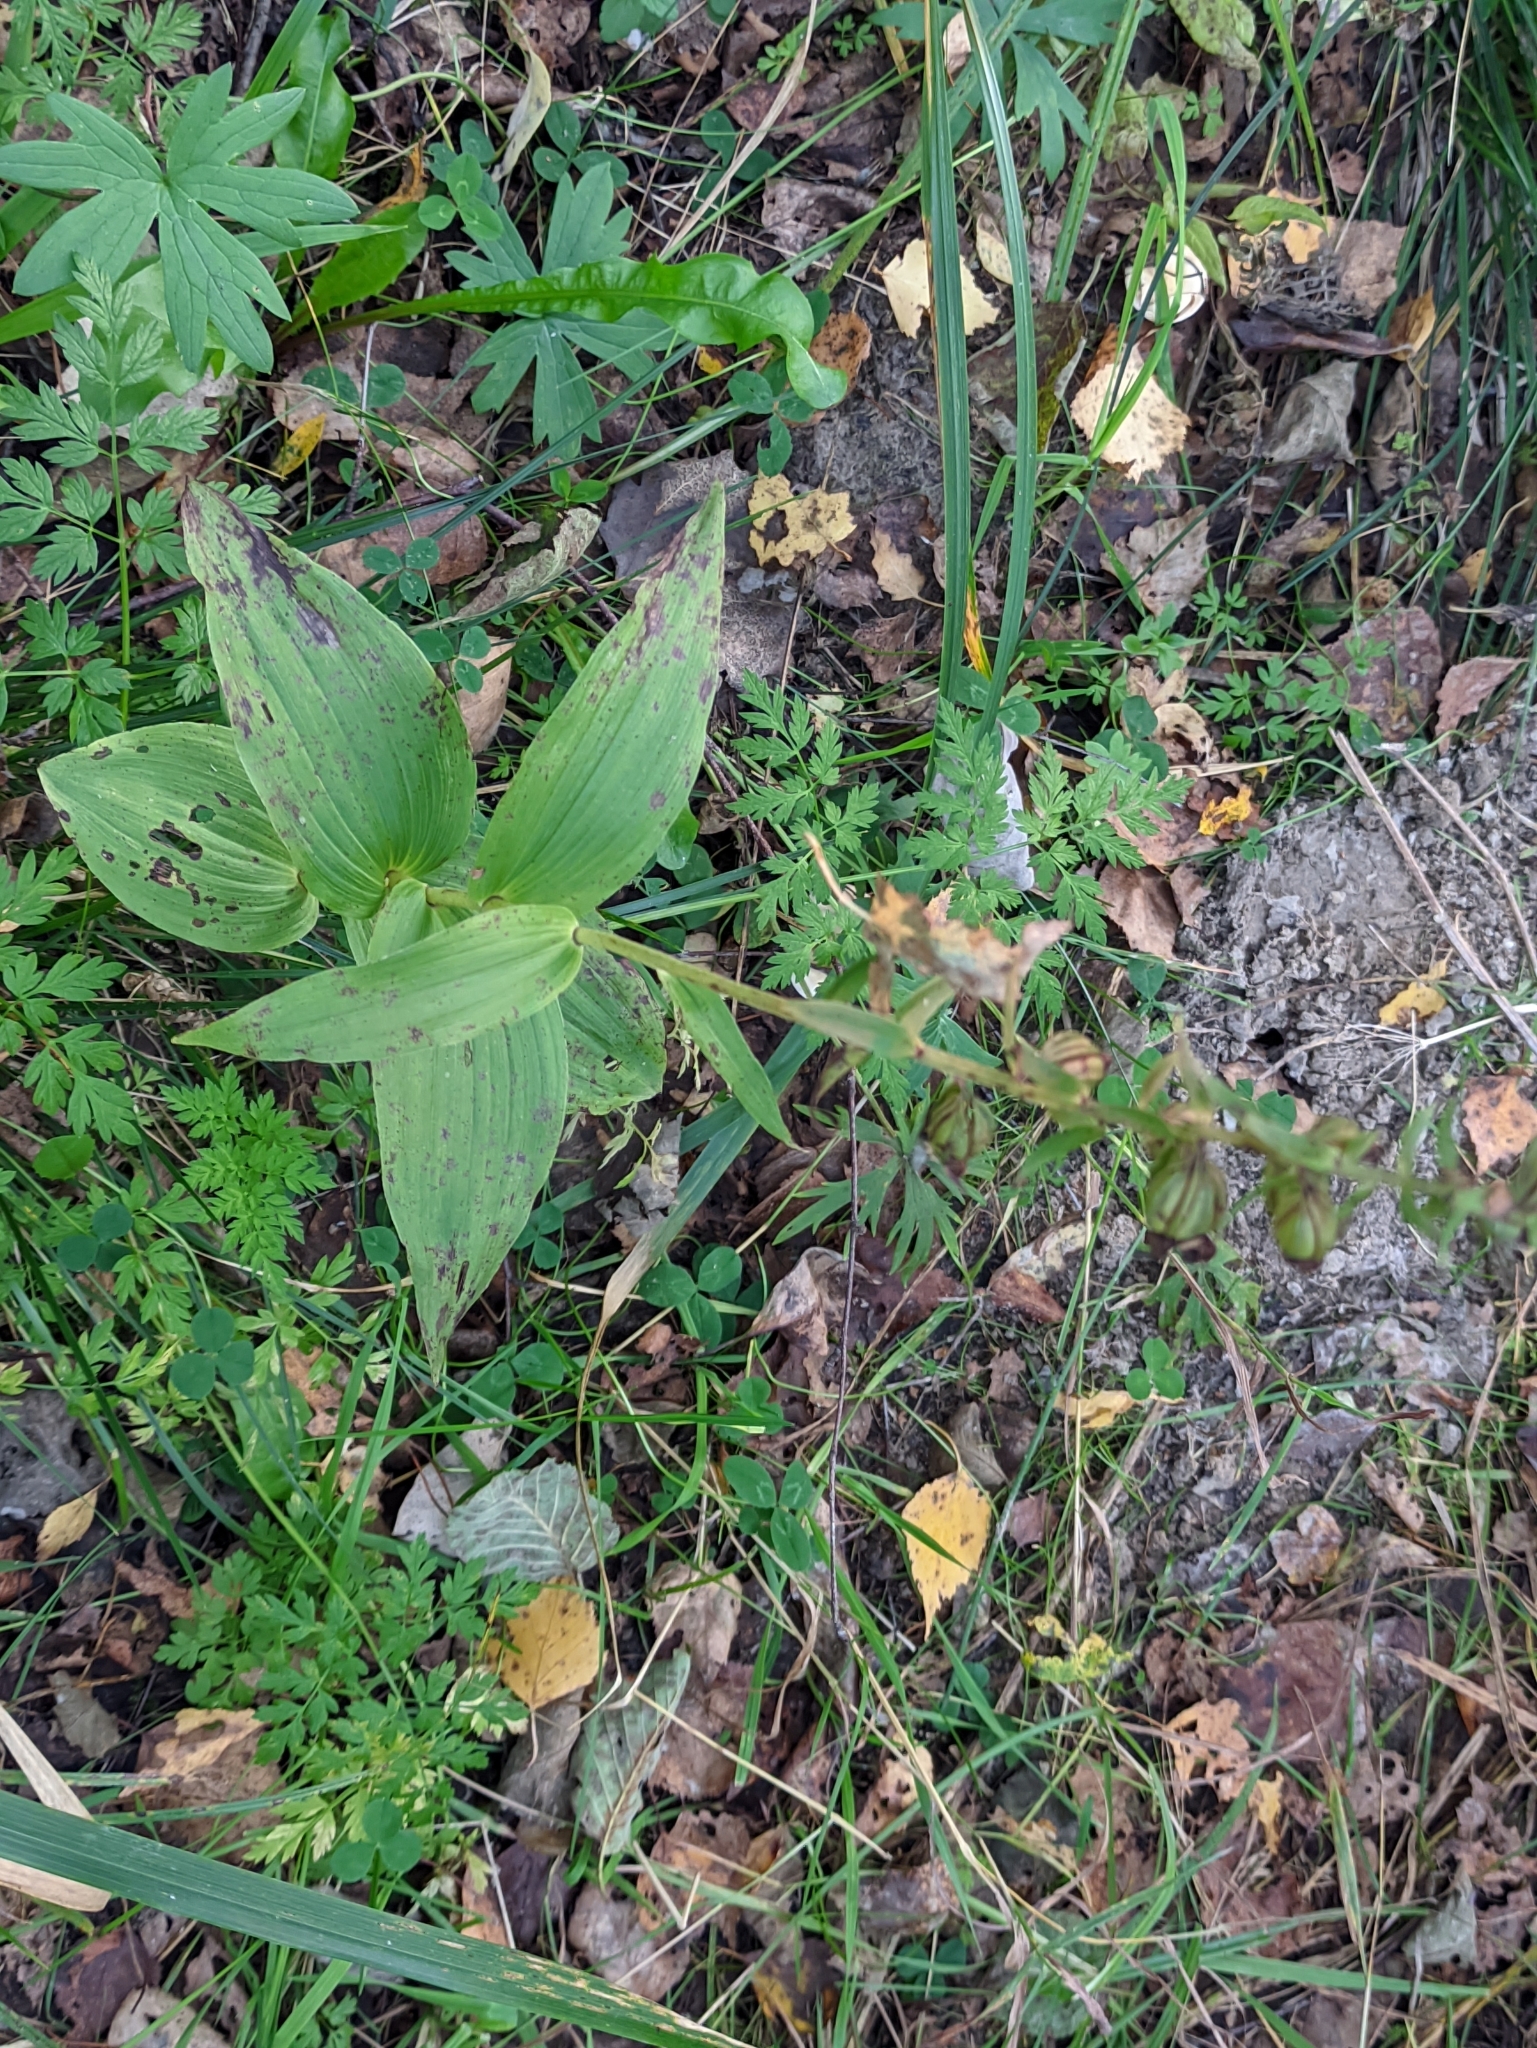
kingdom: Plantae
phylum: Tracheophyta
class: Liliopsida
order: Asparagales
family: Orchidaceae
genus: Epipactis
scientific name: Epipactis helleborine
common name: Broad-leaved helleborine
